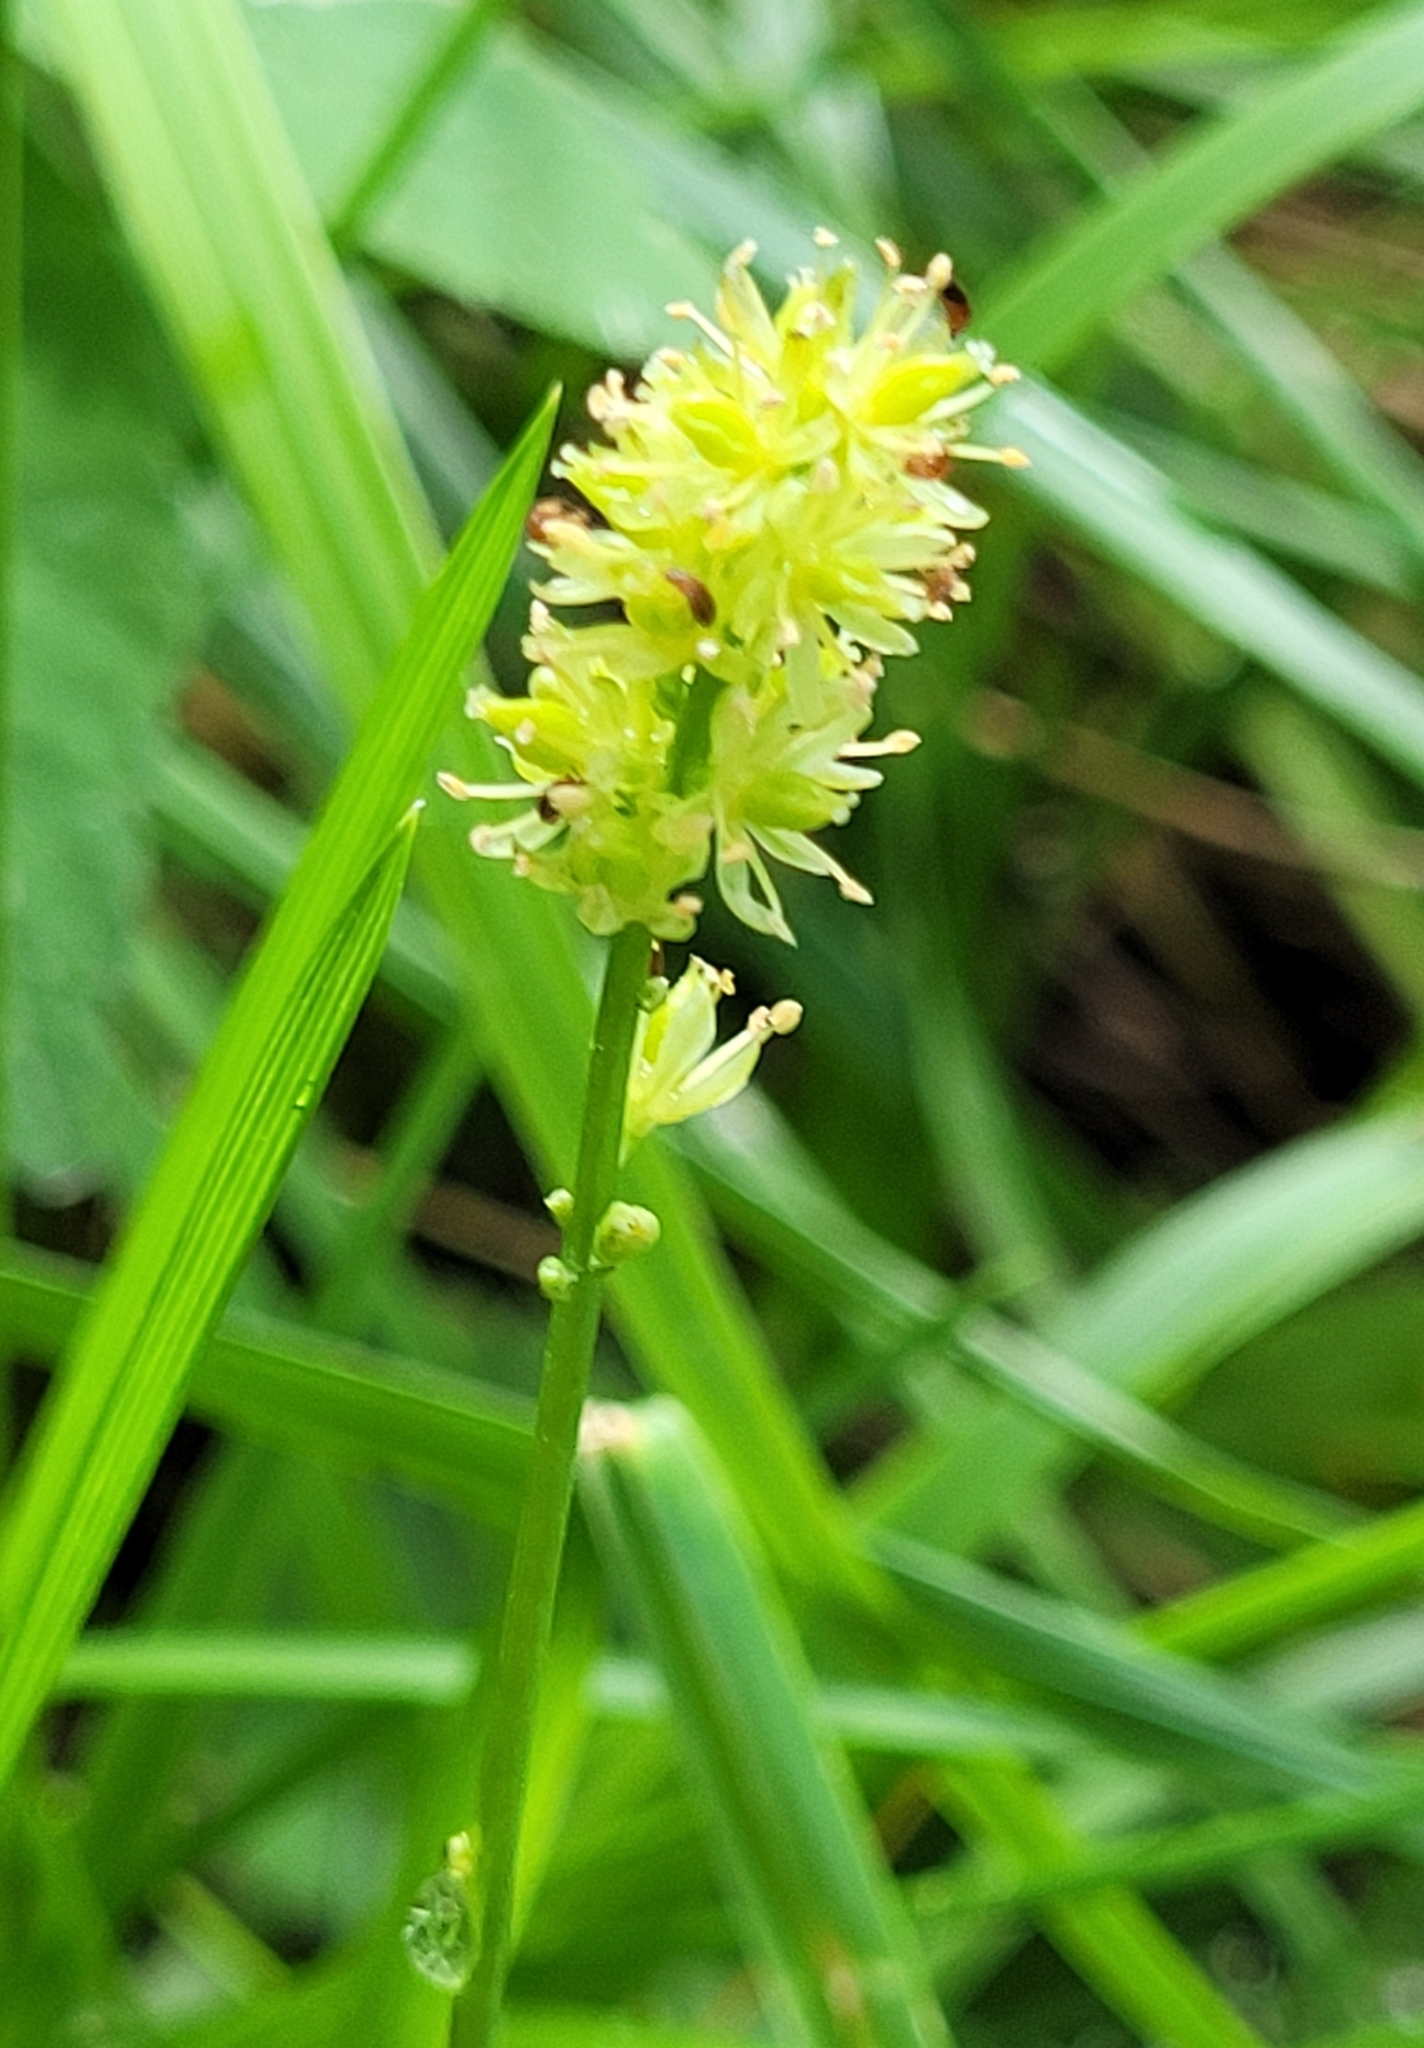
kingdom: Plantae
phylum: Tracheophyta
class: Liliopsida
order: Alismatales
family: Tofieldiaceae
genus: Tofieldia
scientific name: Tofieldia calyculata
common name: German-asphodel
